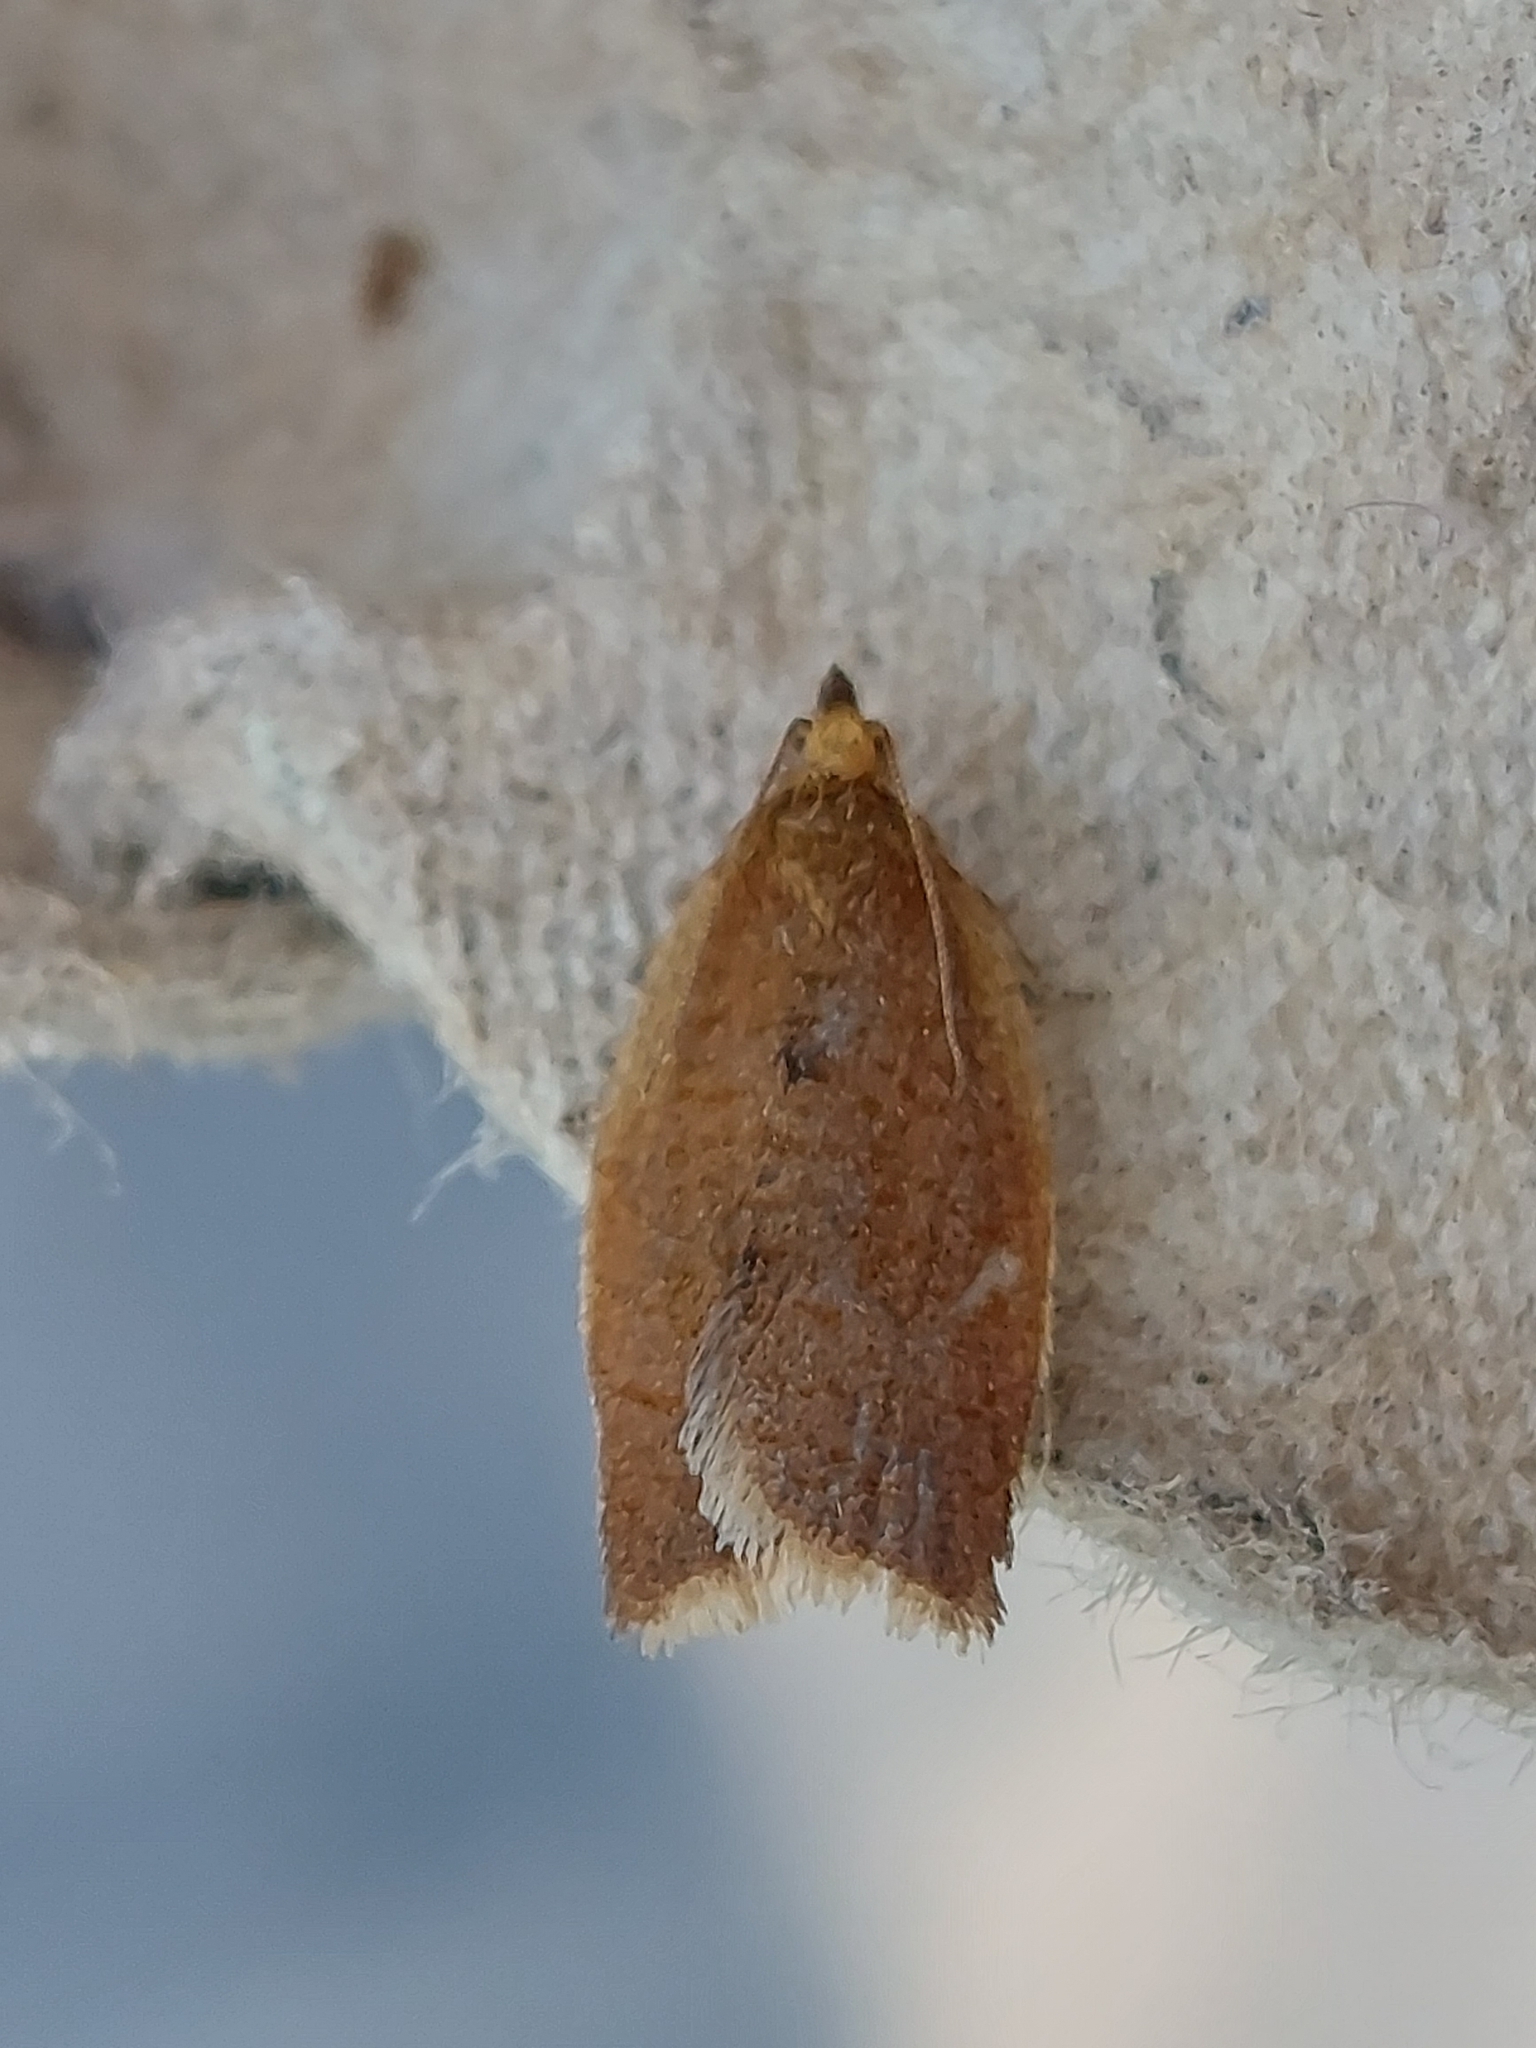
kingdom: Animalia
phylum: Arthropoda
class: Insecta
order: Lepidoptera
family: Tortricidae
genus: Clepsis
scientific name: Clepsis consimilana
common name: Privet tortrix
